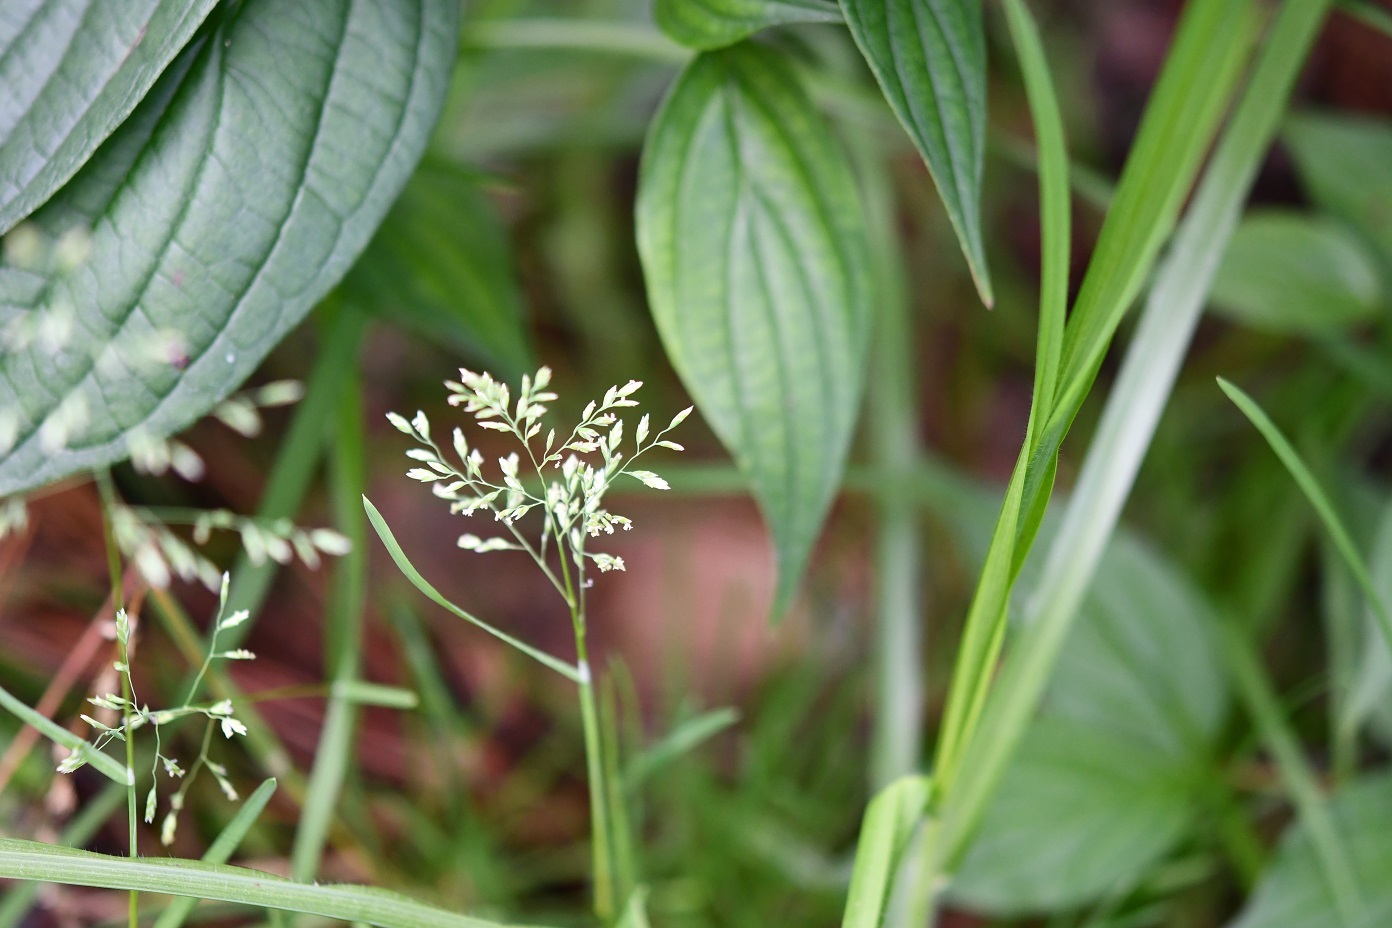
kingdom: Plantae
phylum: Tracheophyta
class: Liliopsida
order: Poales
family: Poaceae
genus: Poa
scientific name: Poa annua
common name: Annual bluegrass
